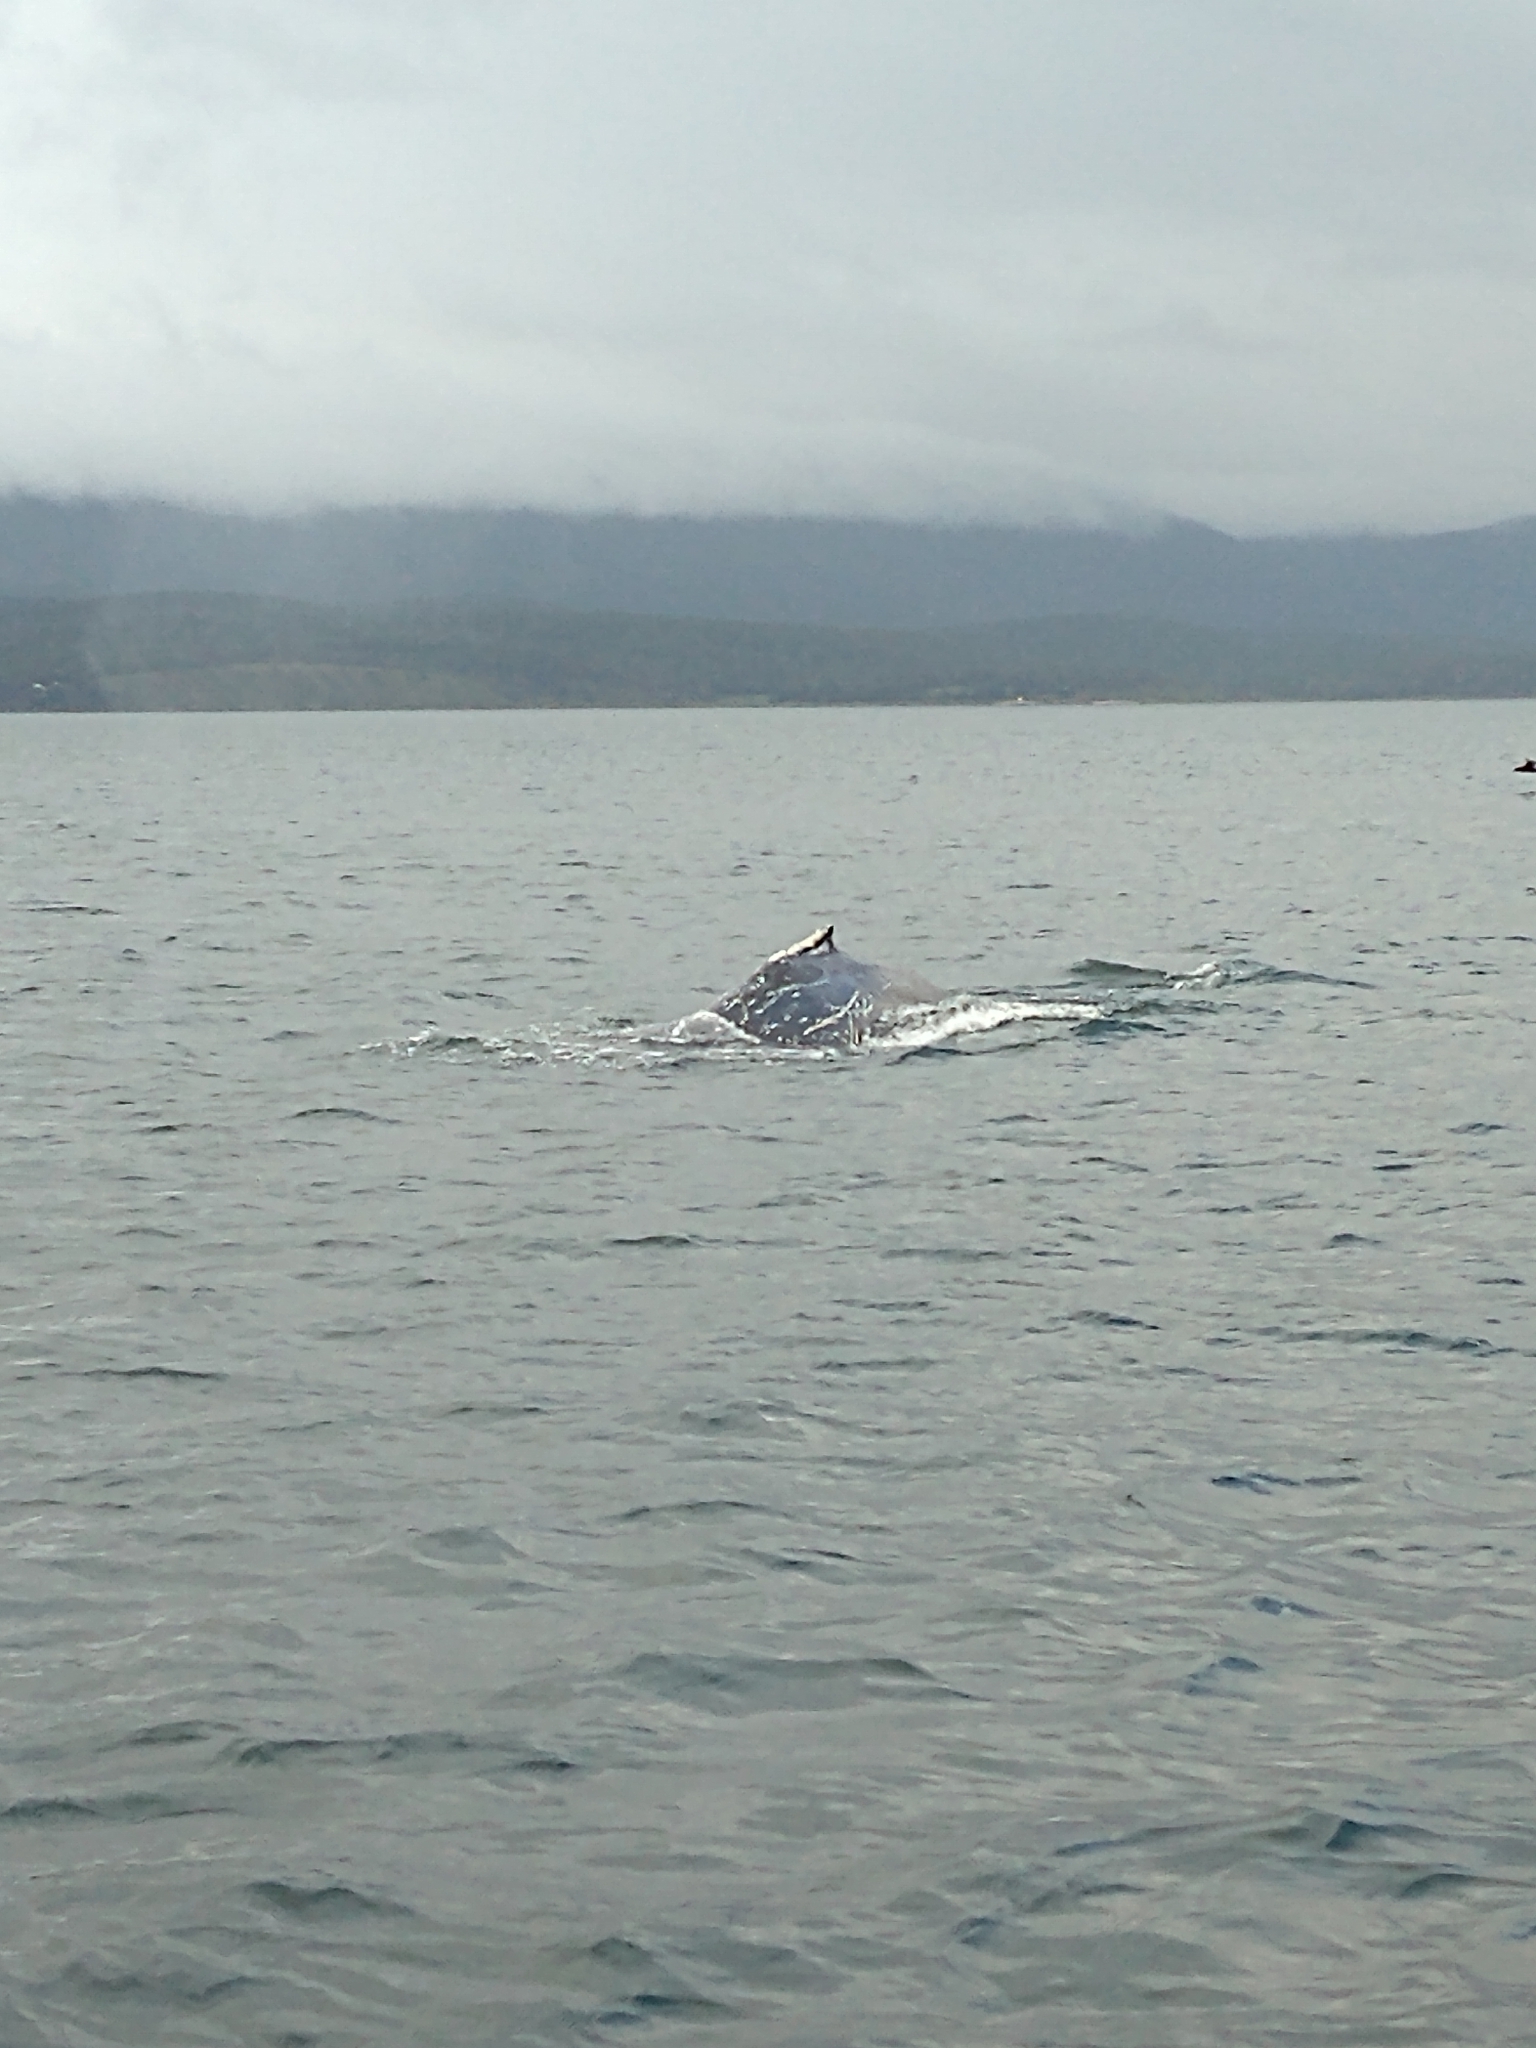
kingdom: Animalia
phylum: Chordata
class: Mammalia
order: Cetacea
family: Balaenopteridae
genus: Megaptera
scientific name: Megaptera novaeangliae
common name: Humpback whale
